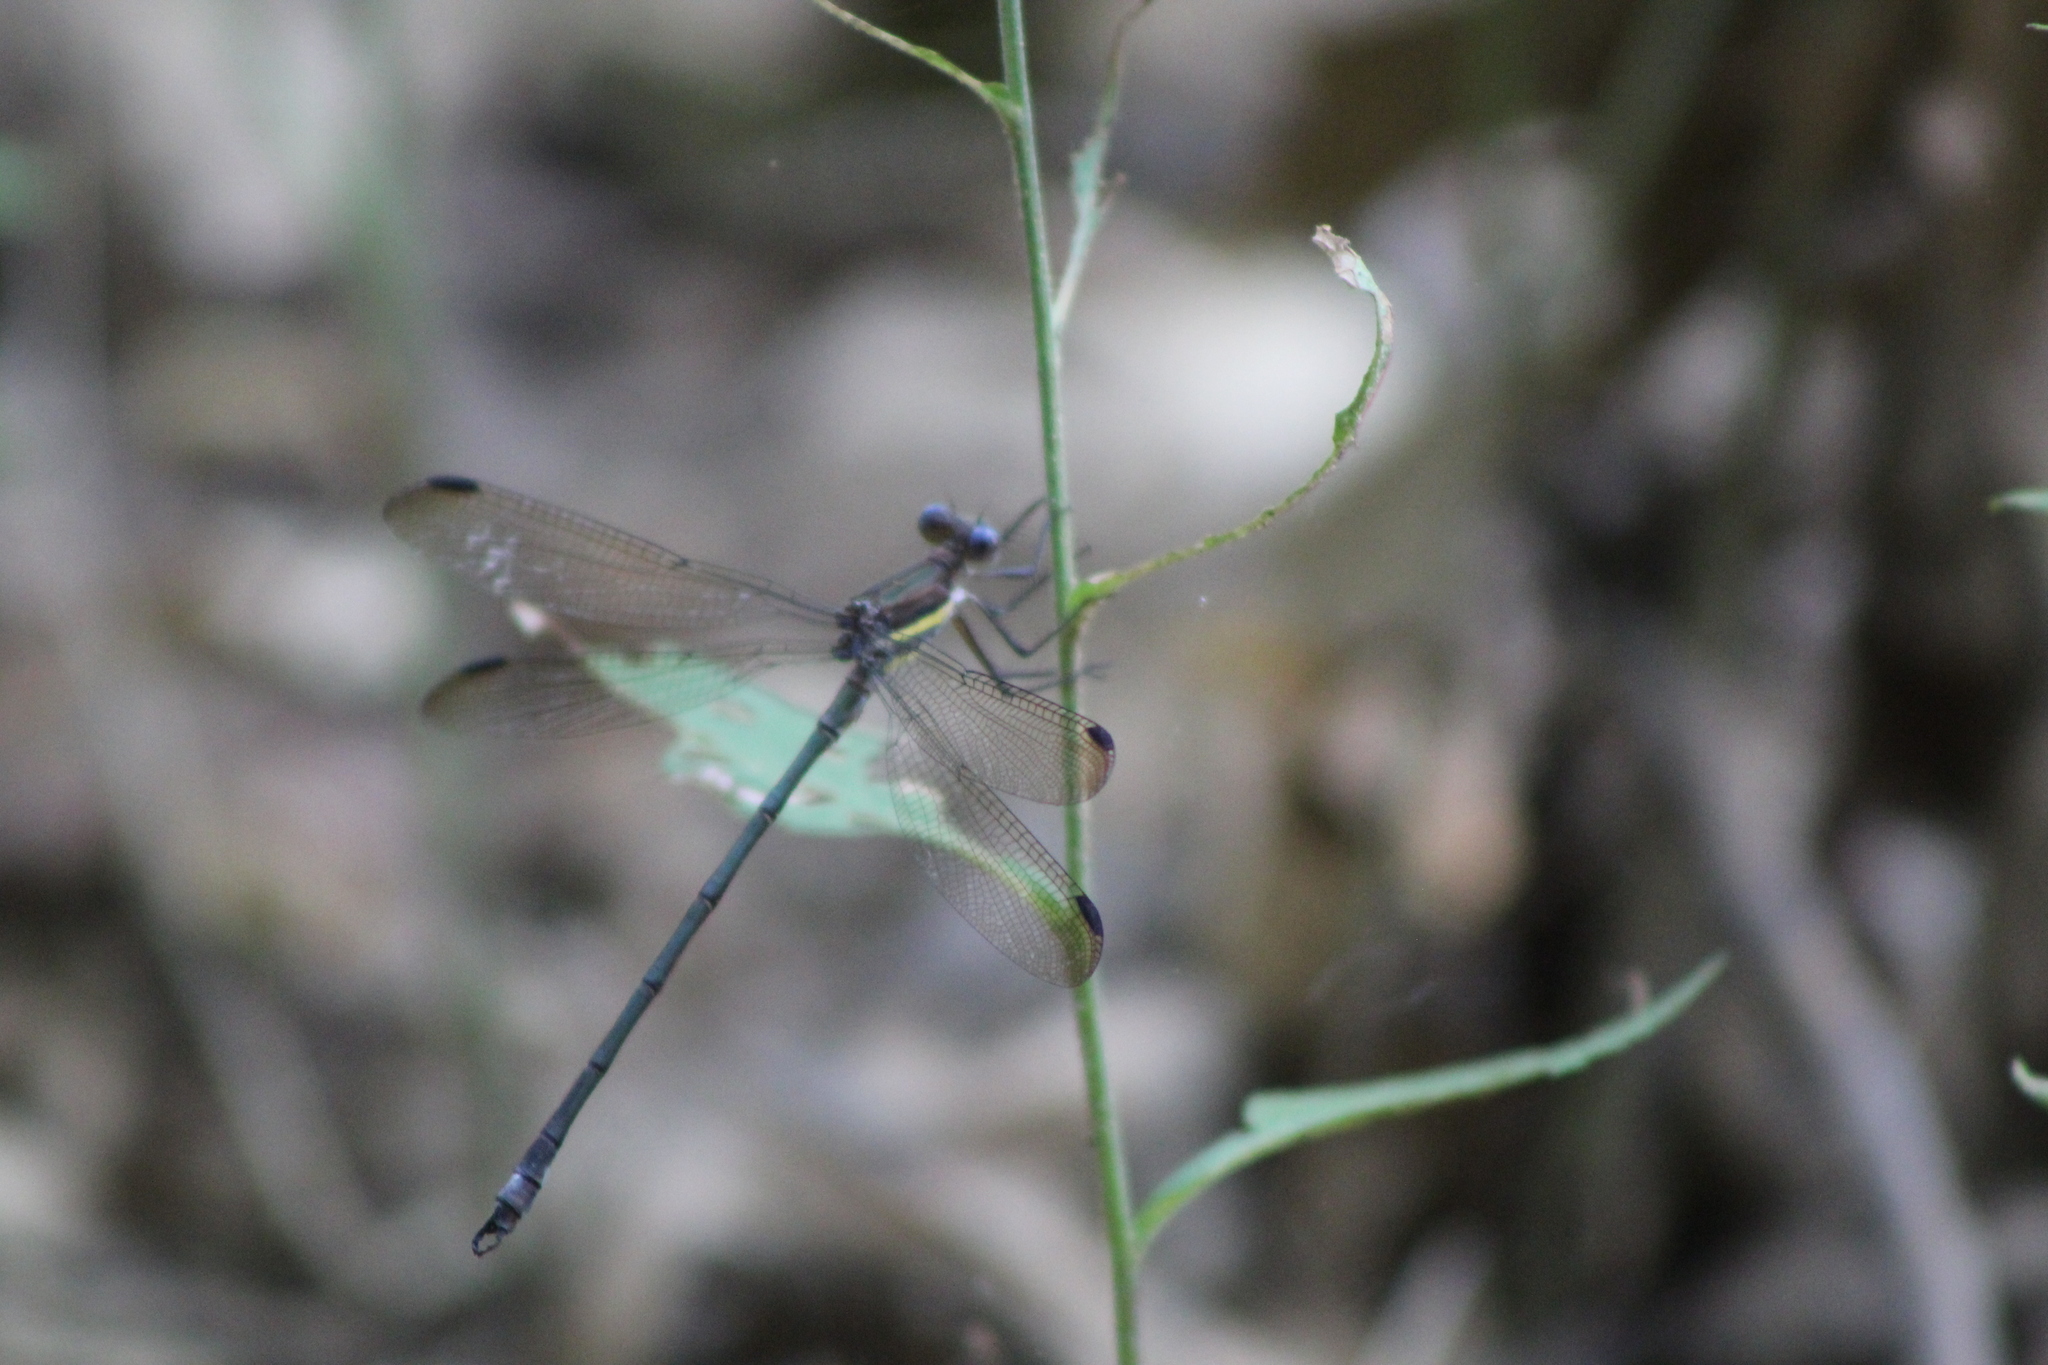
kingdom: Animalia
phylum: Arthropoda
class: Insecta
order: Odonata
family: Lestidae
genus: Archilestes
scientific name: Archilestes grandis
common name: Great spreadwing
